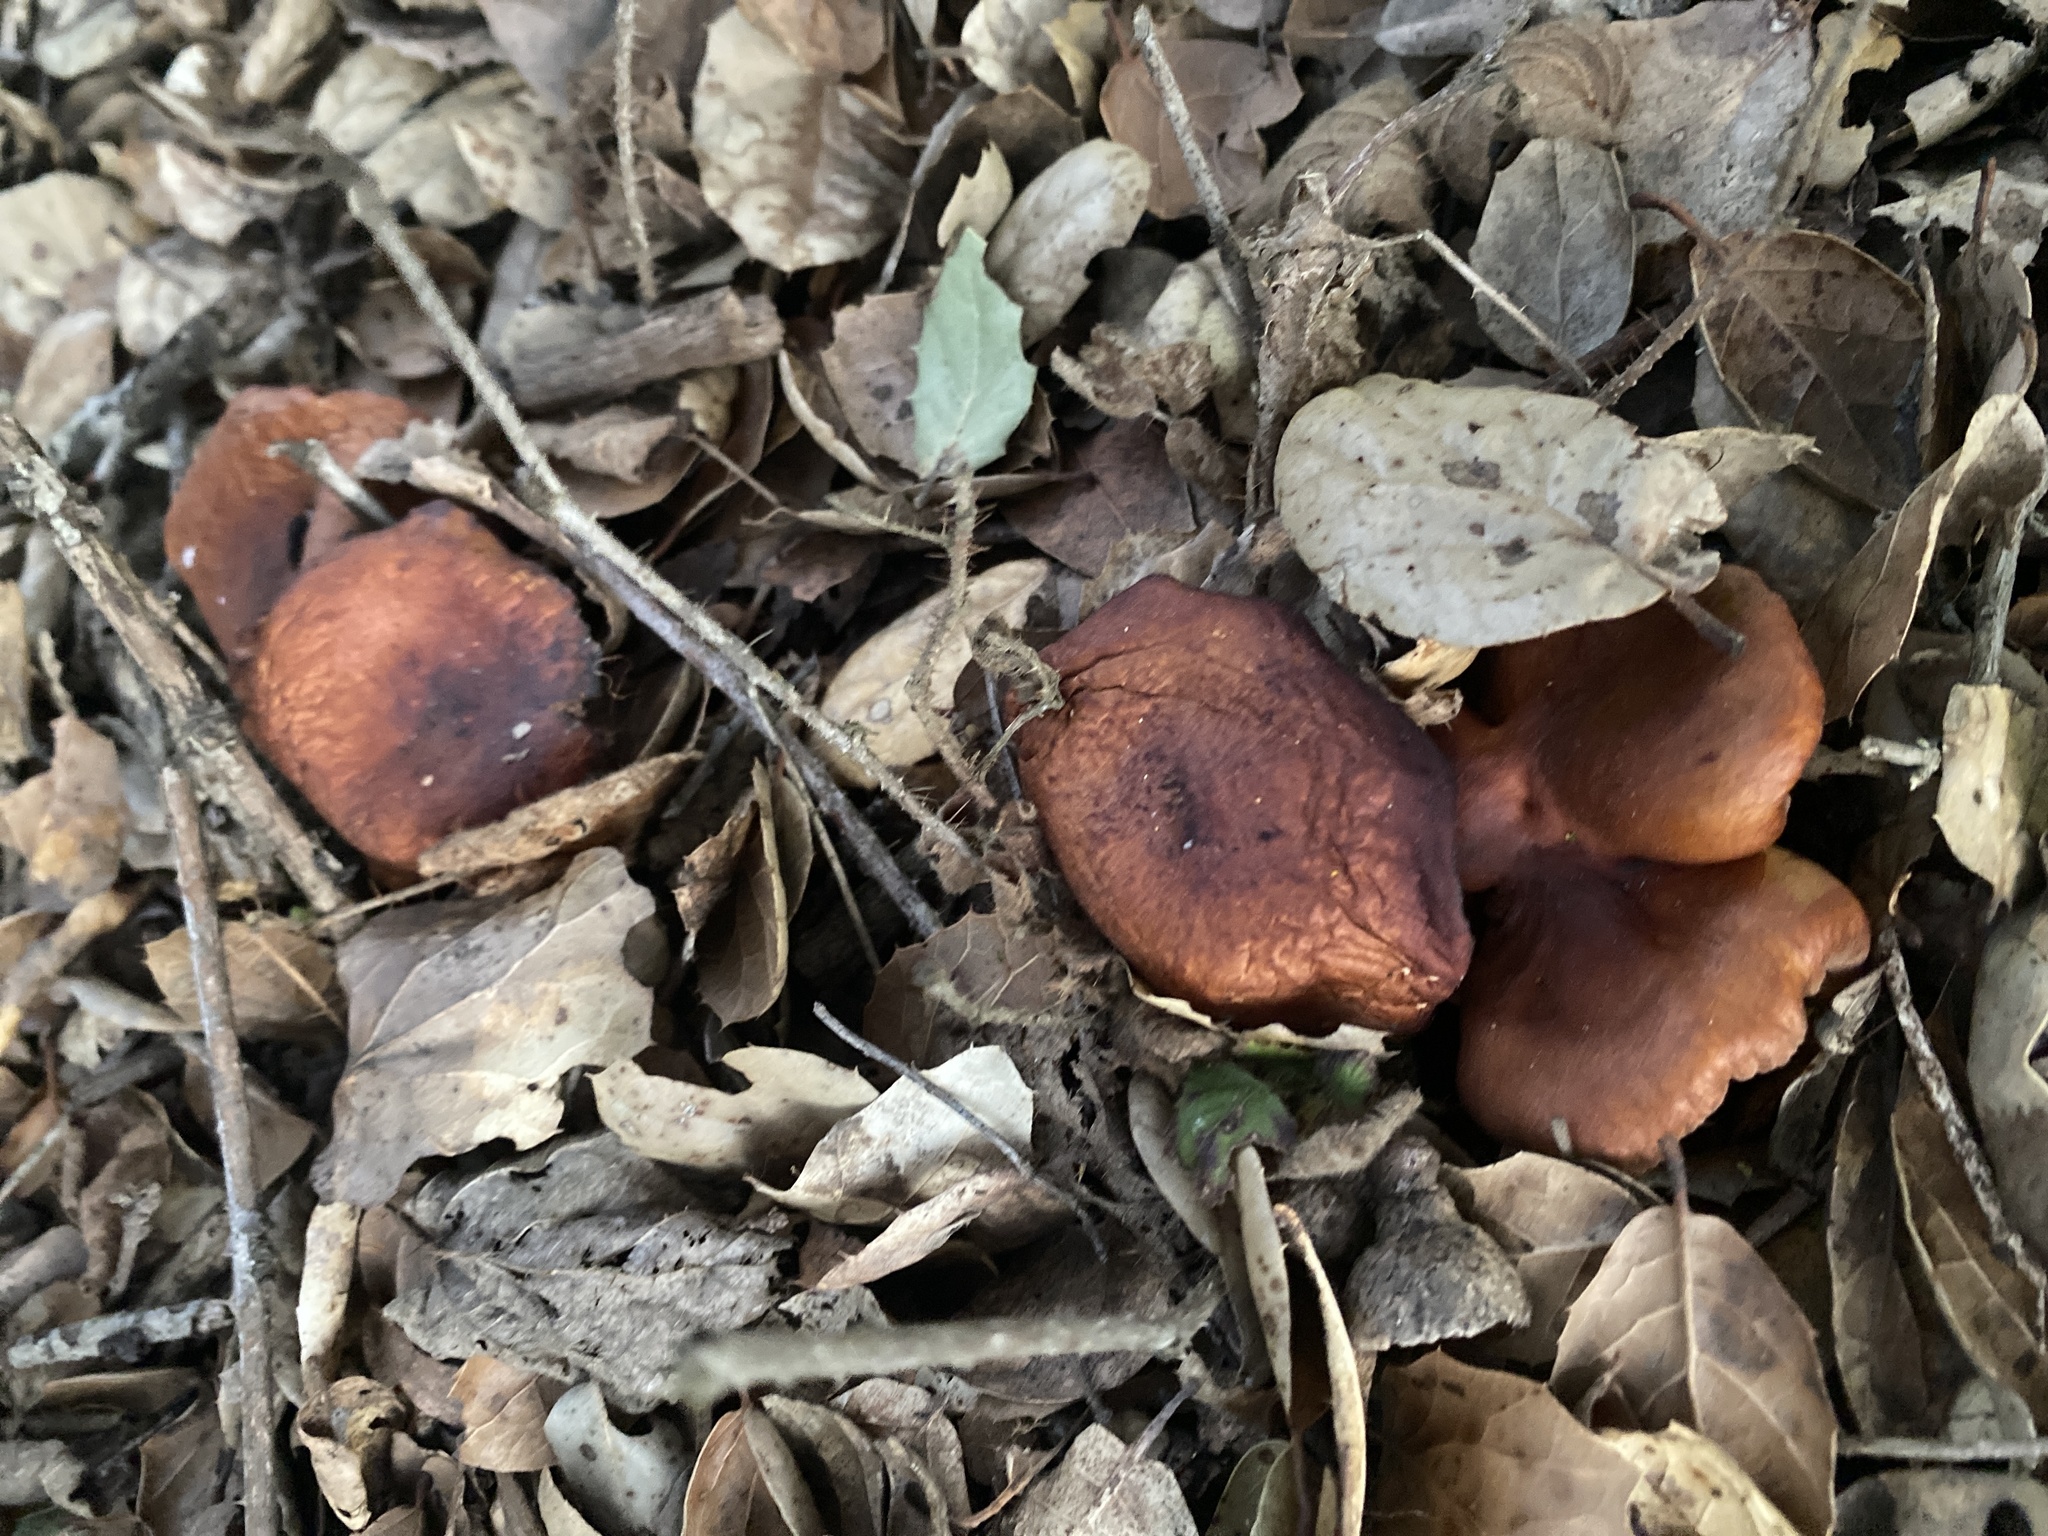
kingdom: Fungi
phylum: Basidiomycota
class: Agaricomycetes
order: Russulales
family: Russulaceae
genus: Lactarius
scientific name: Lactarius rubidus
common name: Candy cap
